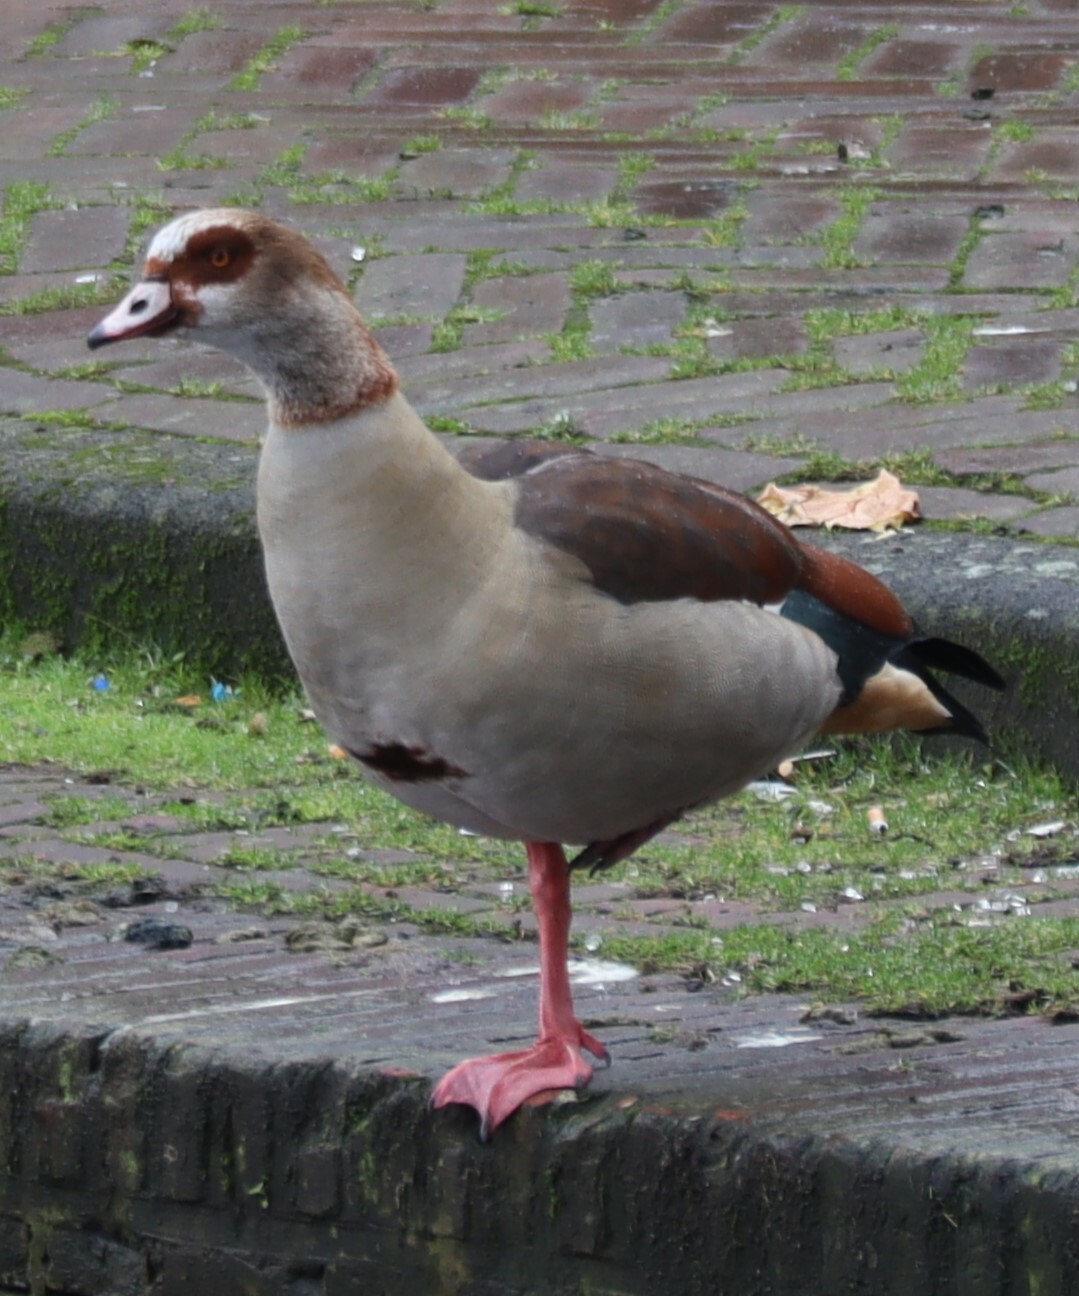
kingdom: Animalia
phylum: Chordata
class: Aves
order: Anseriformes
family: Anatidae
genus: Alopochen
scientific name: Alopochen aegyptiaca
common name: Egyptian goose
